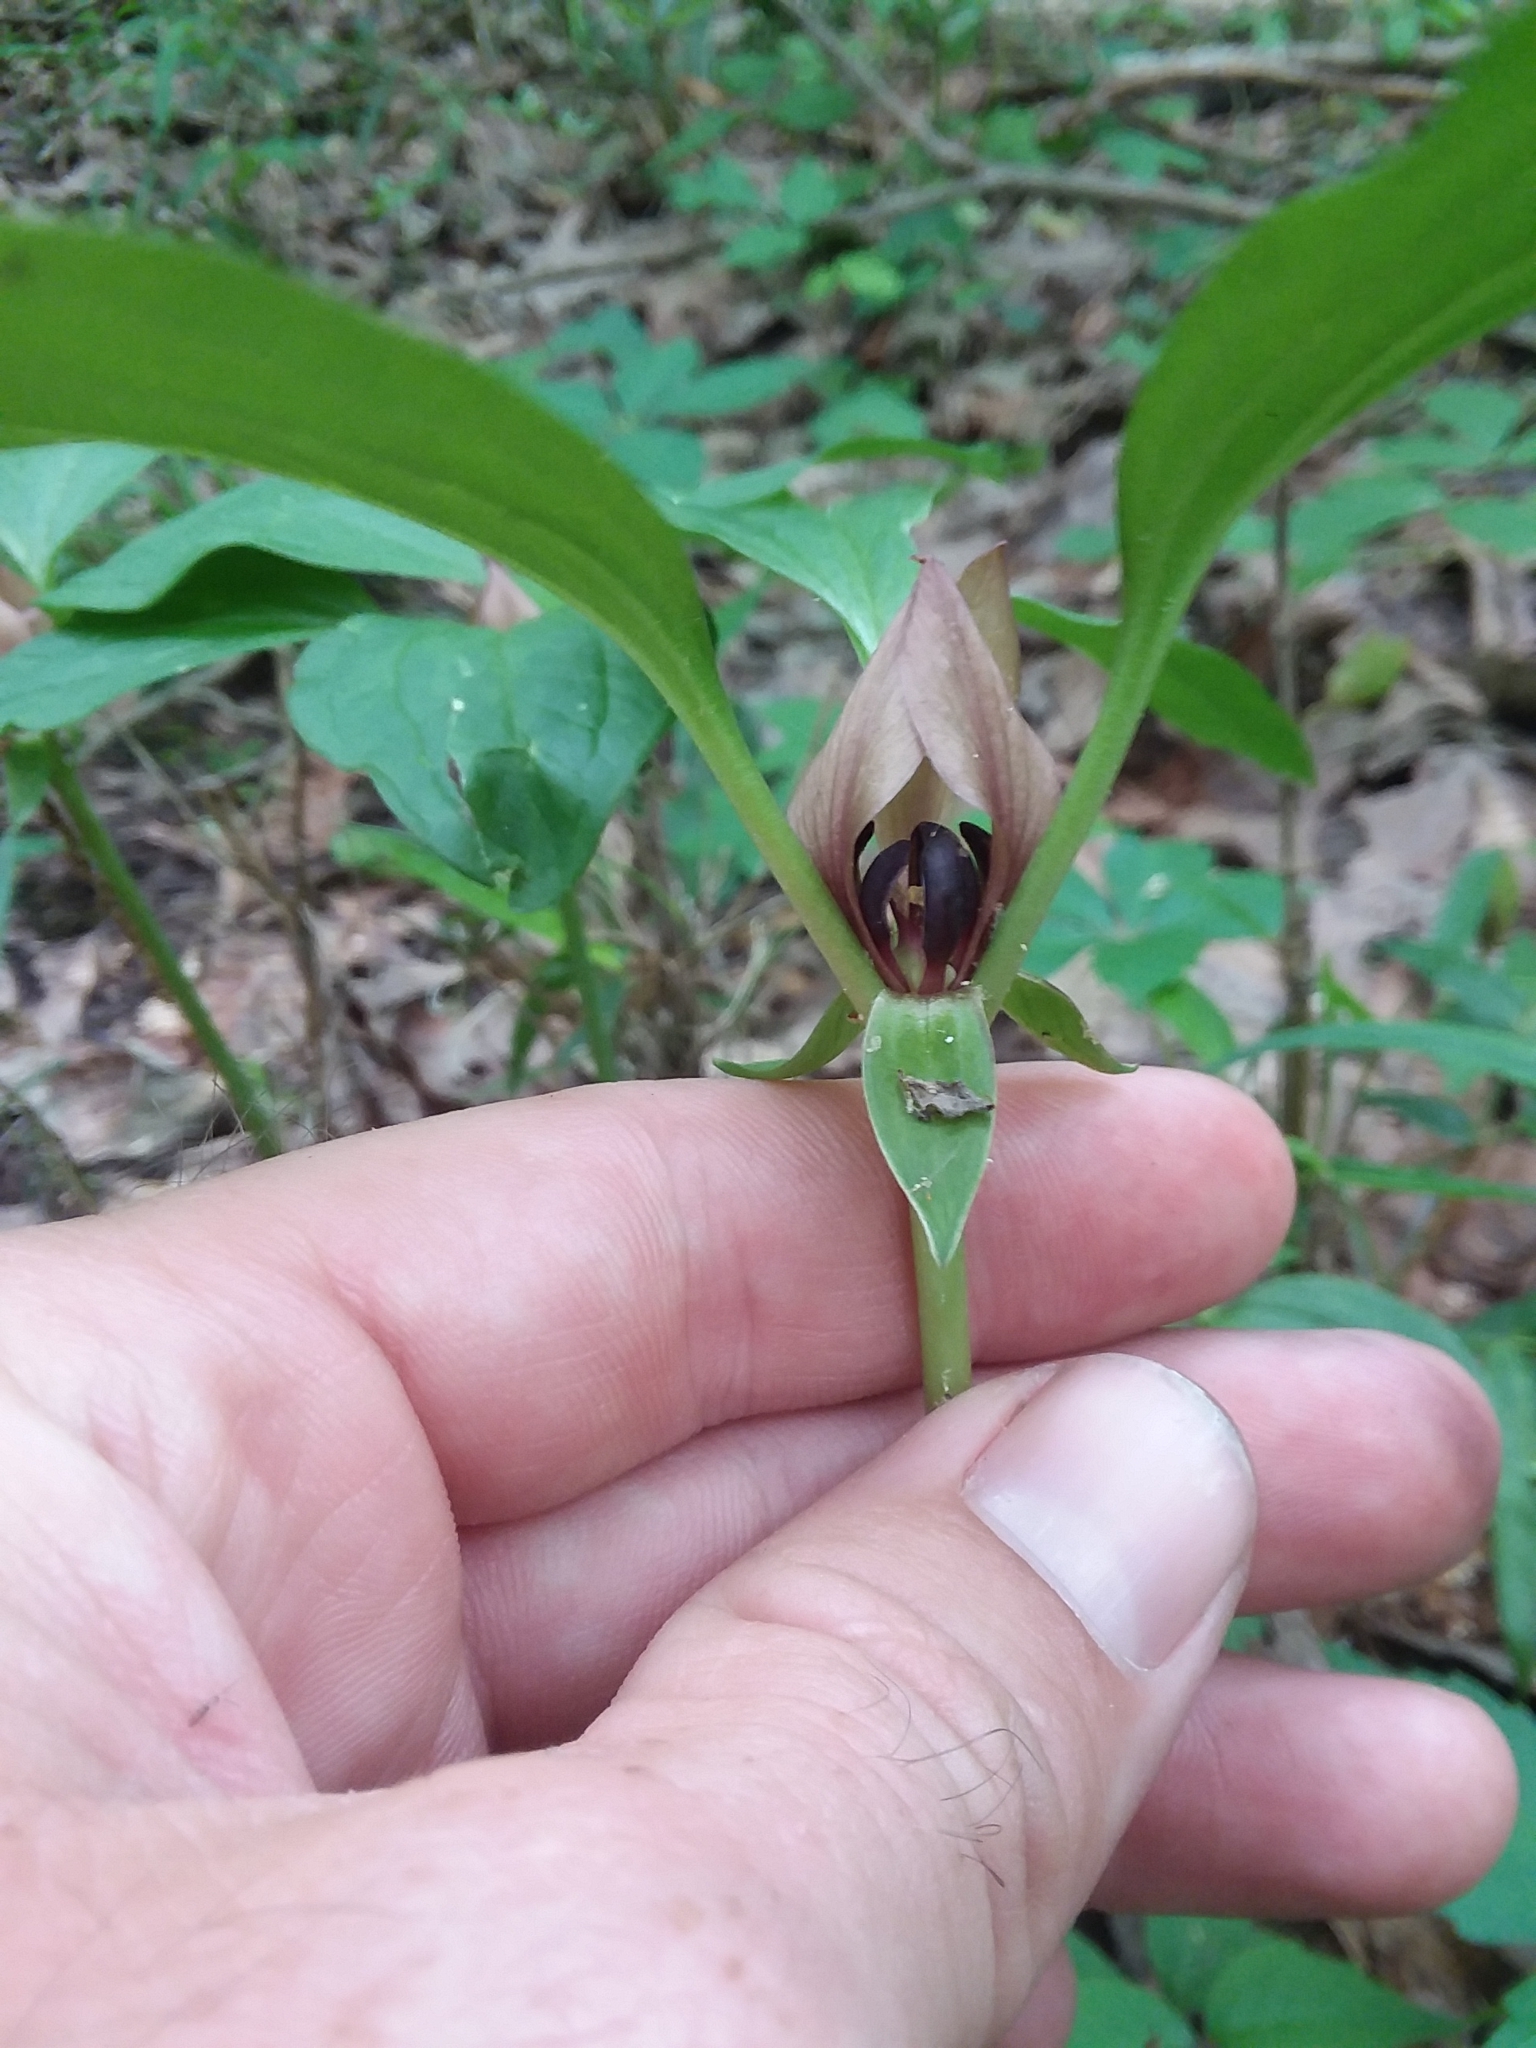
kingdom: Plantae
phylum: Tracheophyta
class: Liliopsida
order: Liliales
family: Melanthiaceae
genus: Trillium
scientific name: Trillium recurvatum
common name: Bloody butcher
